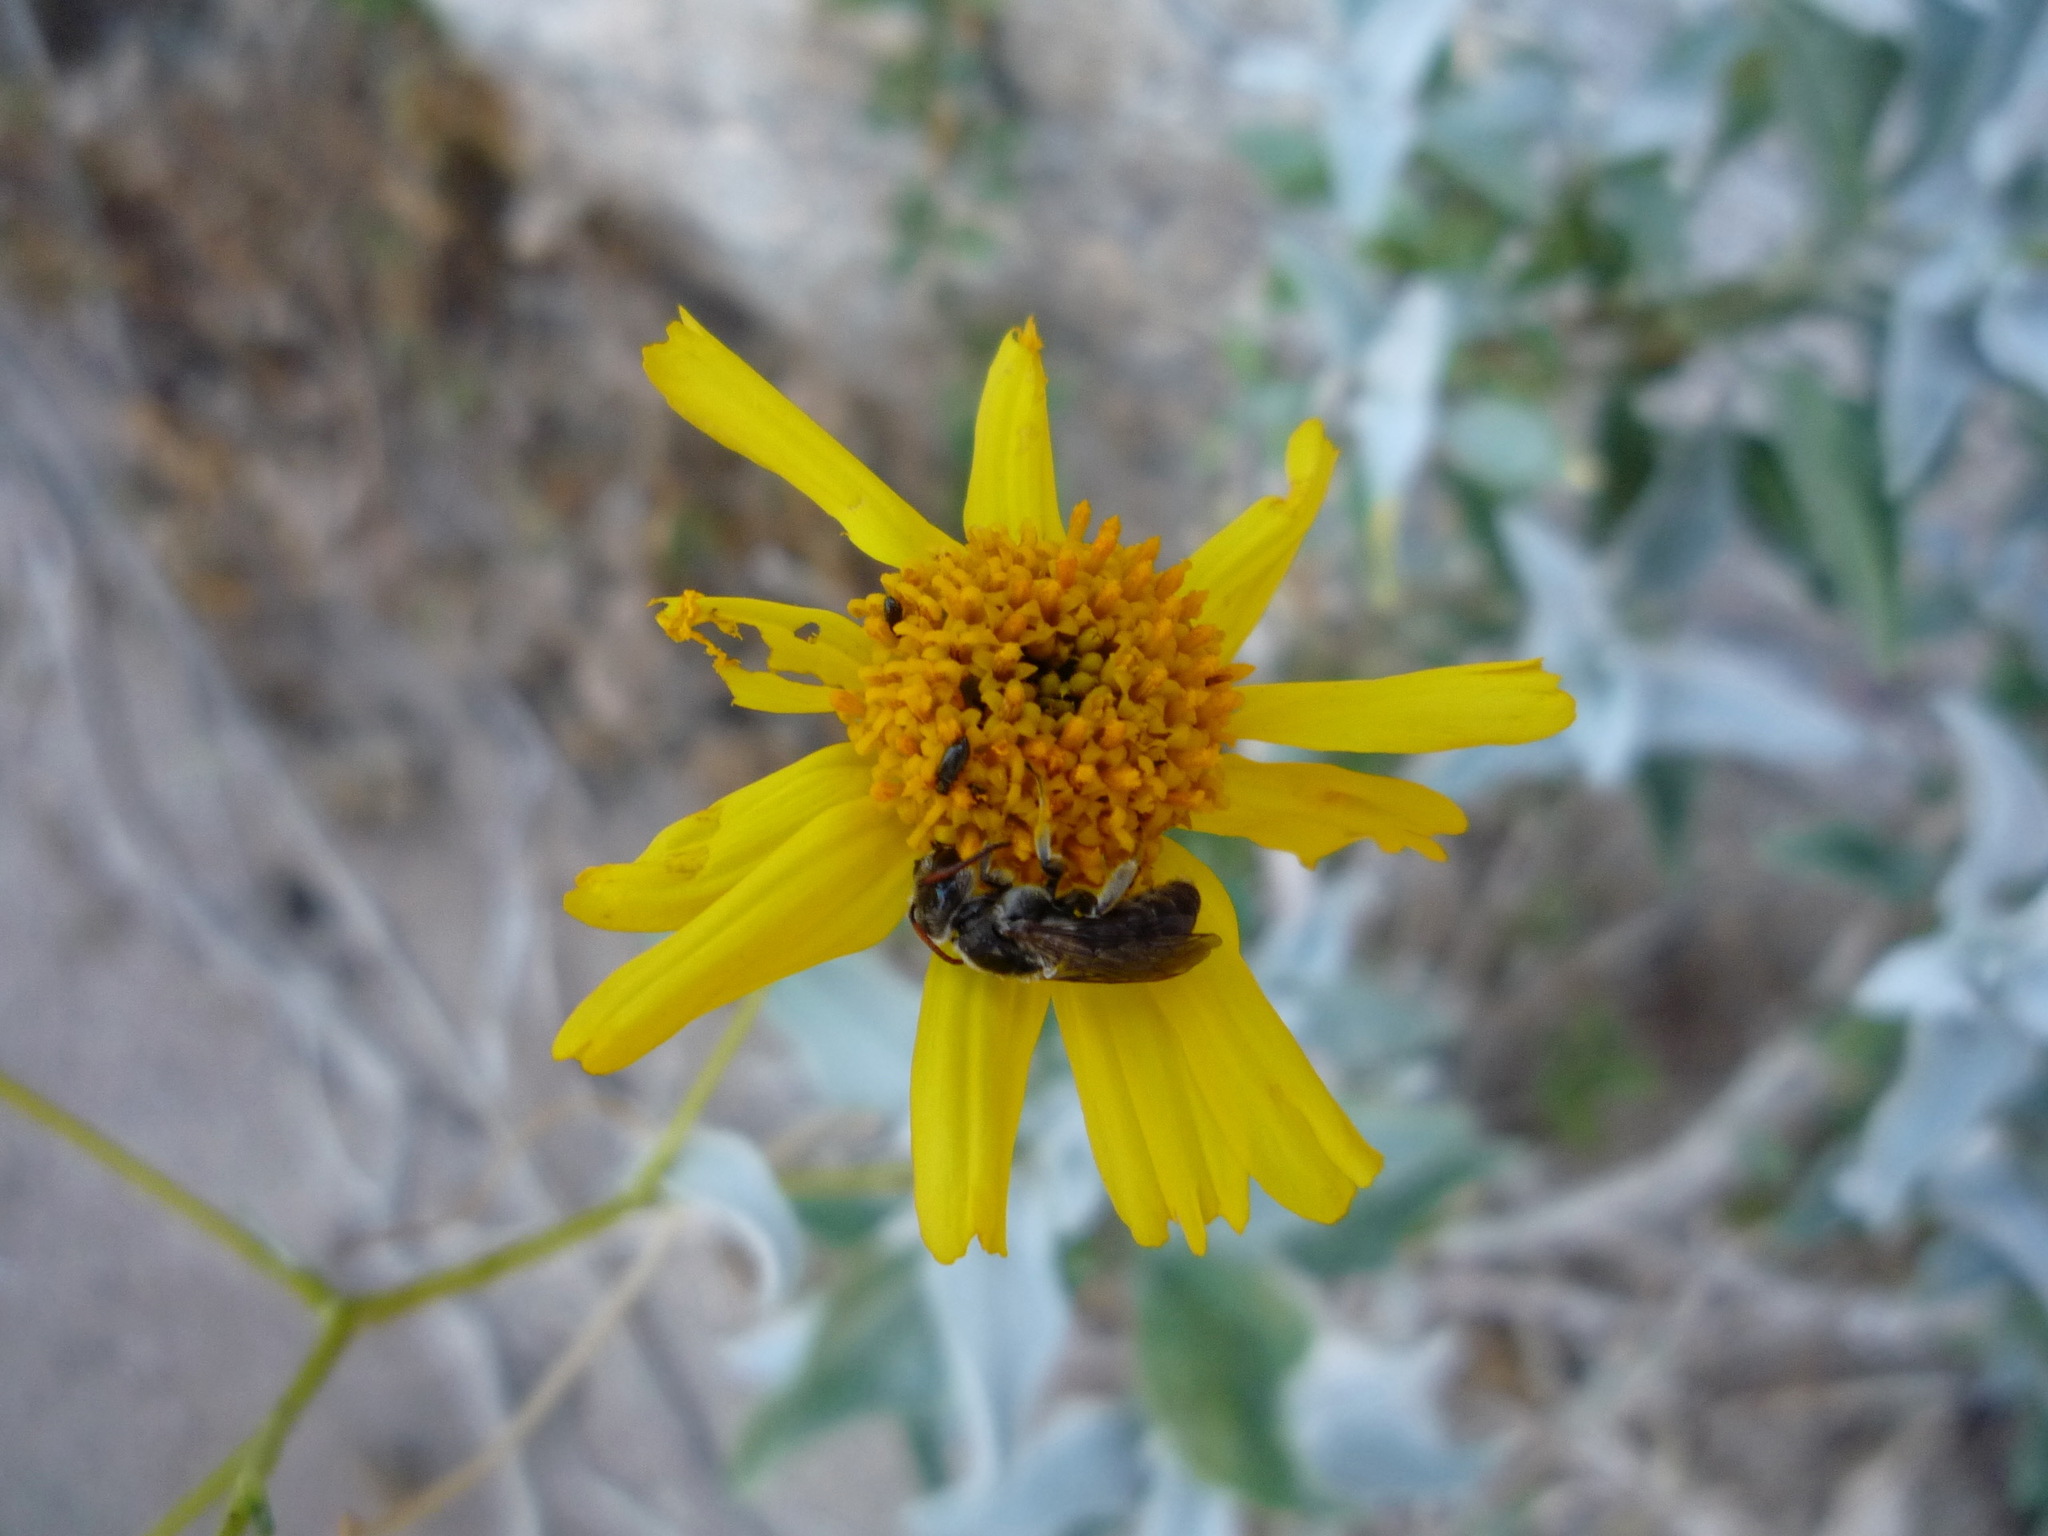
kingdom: Animalia
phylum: Arthropoda
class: Insecta
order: Hymenoptera
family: Halictidae
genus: Xeralictus
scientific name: Xeralictus bicuspidariae
